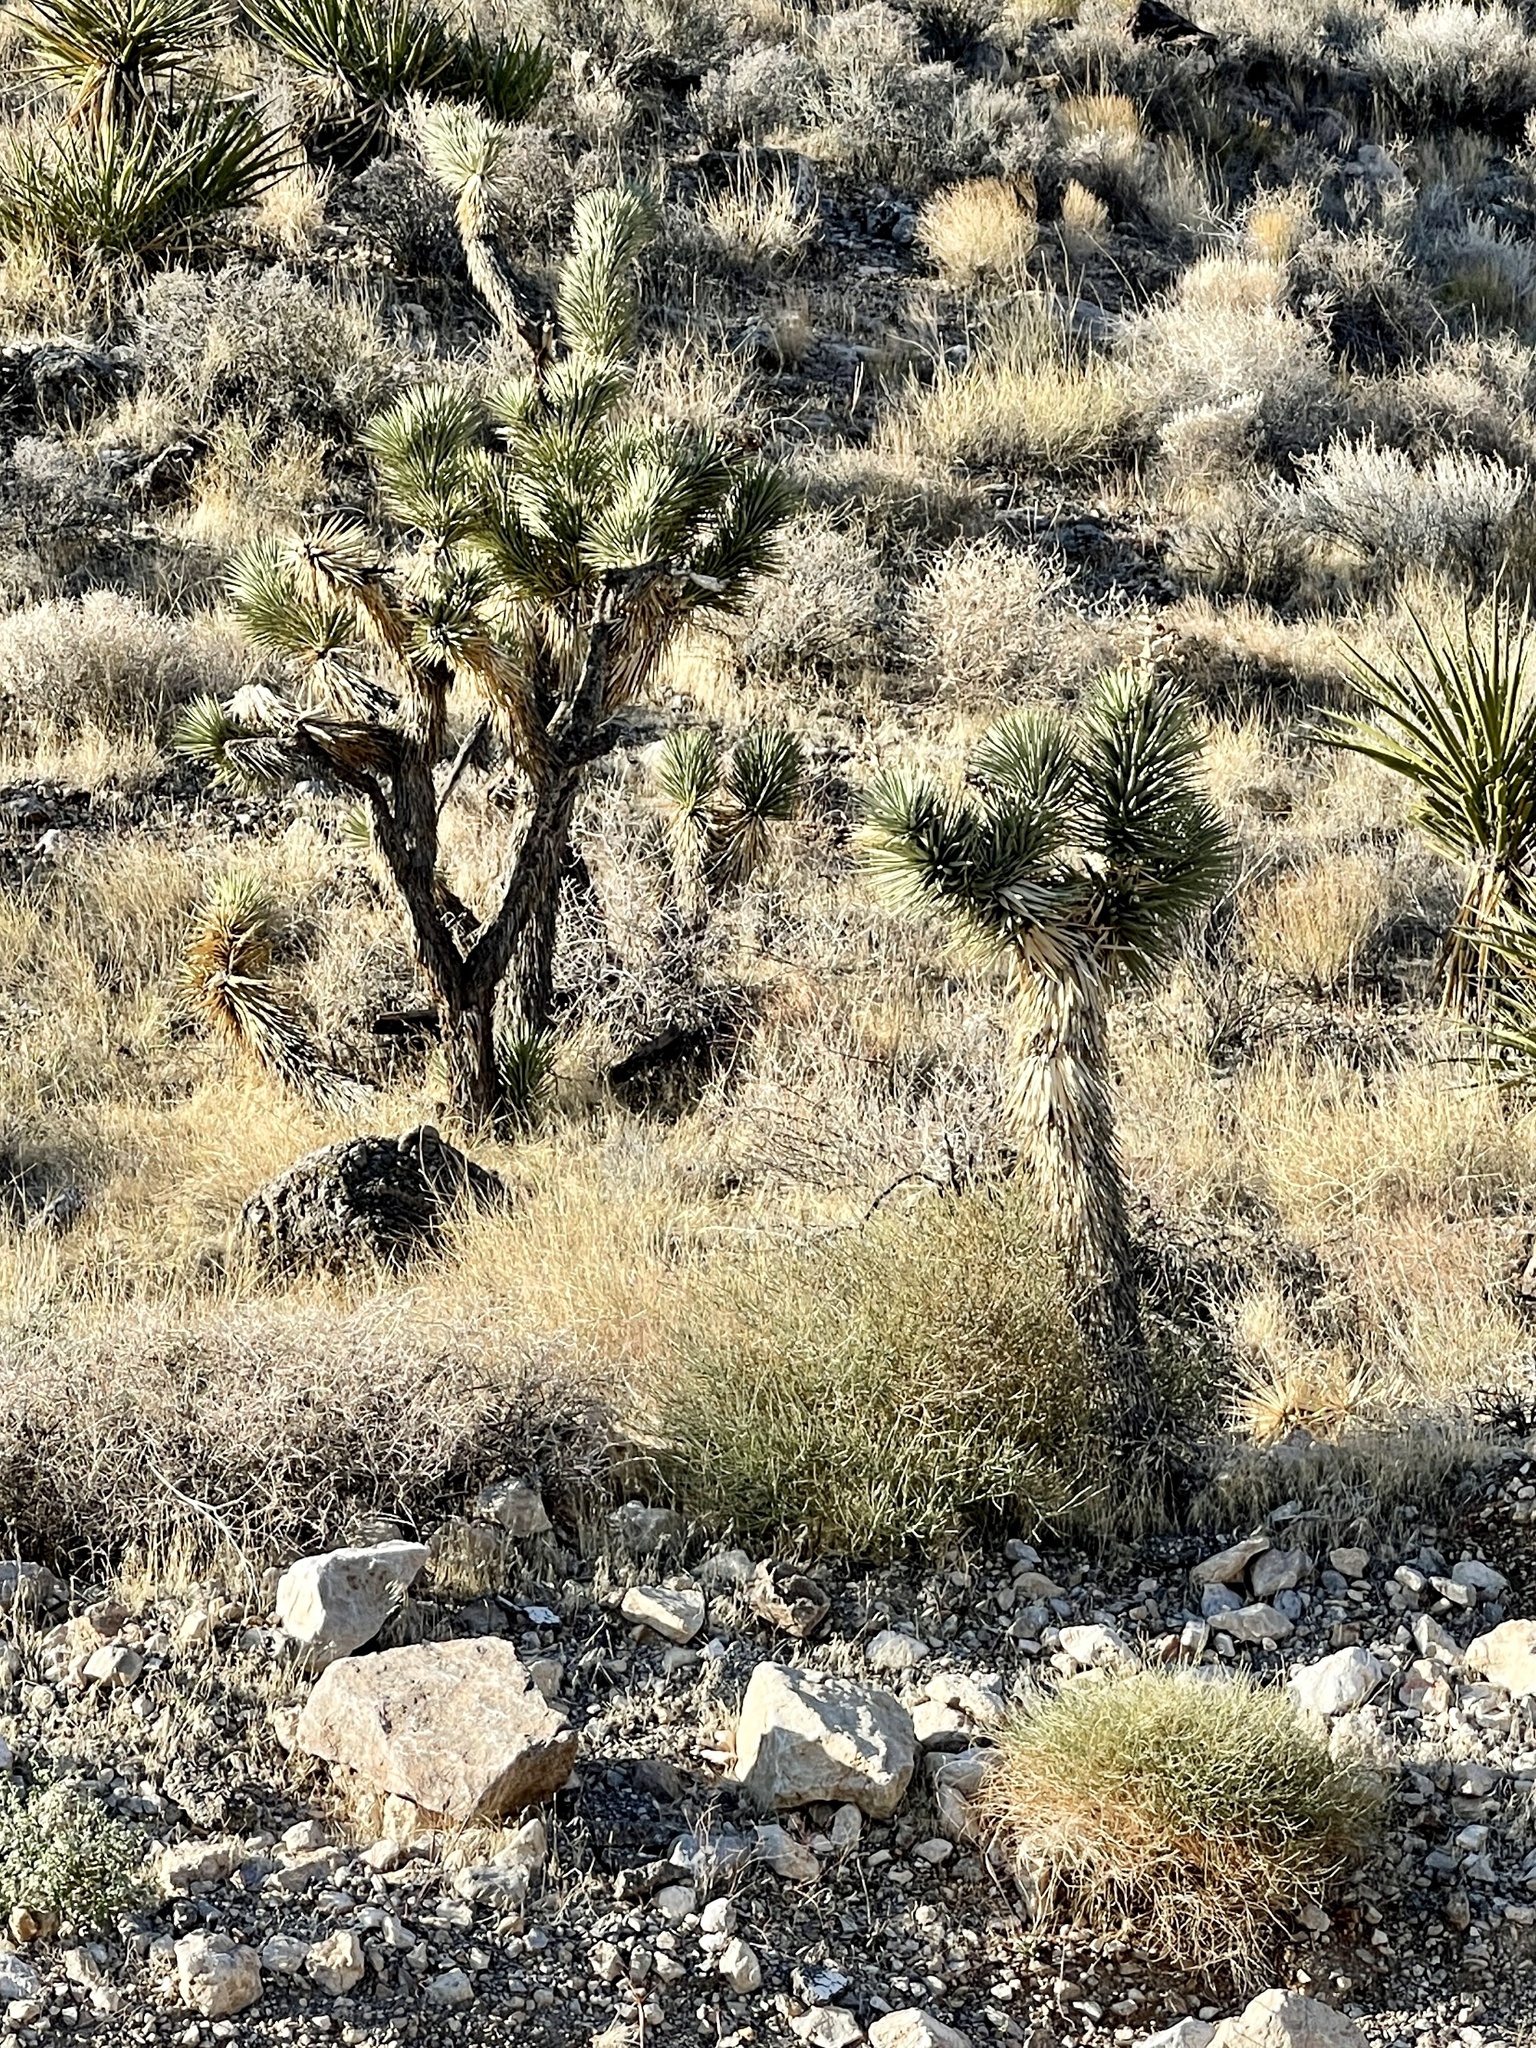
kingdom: Plantae
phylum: Tracheophyta
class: Liliopsida
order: Asparagales
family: Asparagaceae
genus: Yucca
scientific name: Yucca brevifolia
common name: Joshua tree
